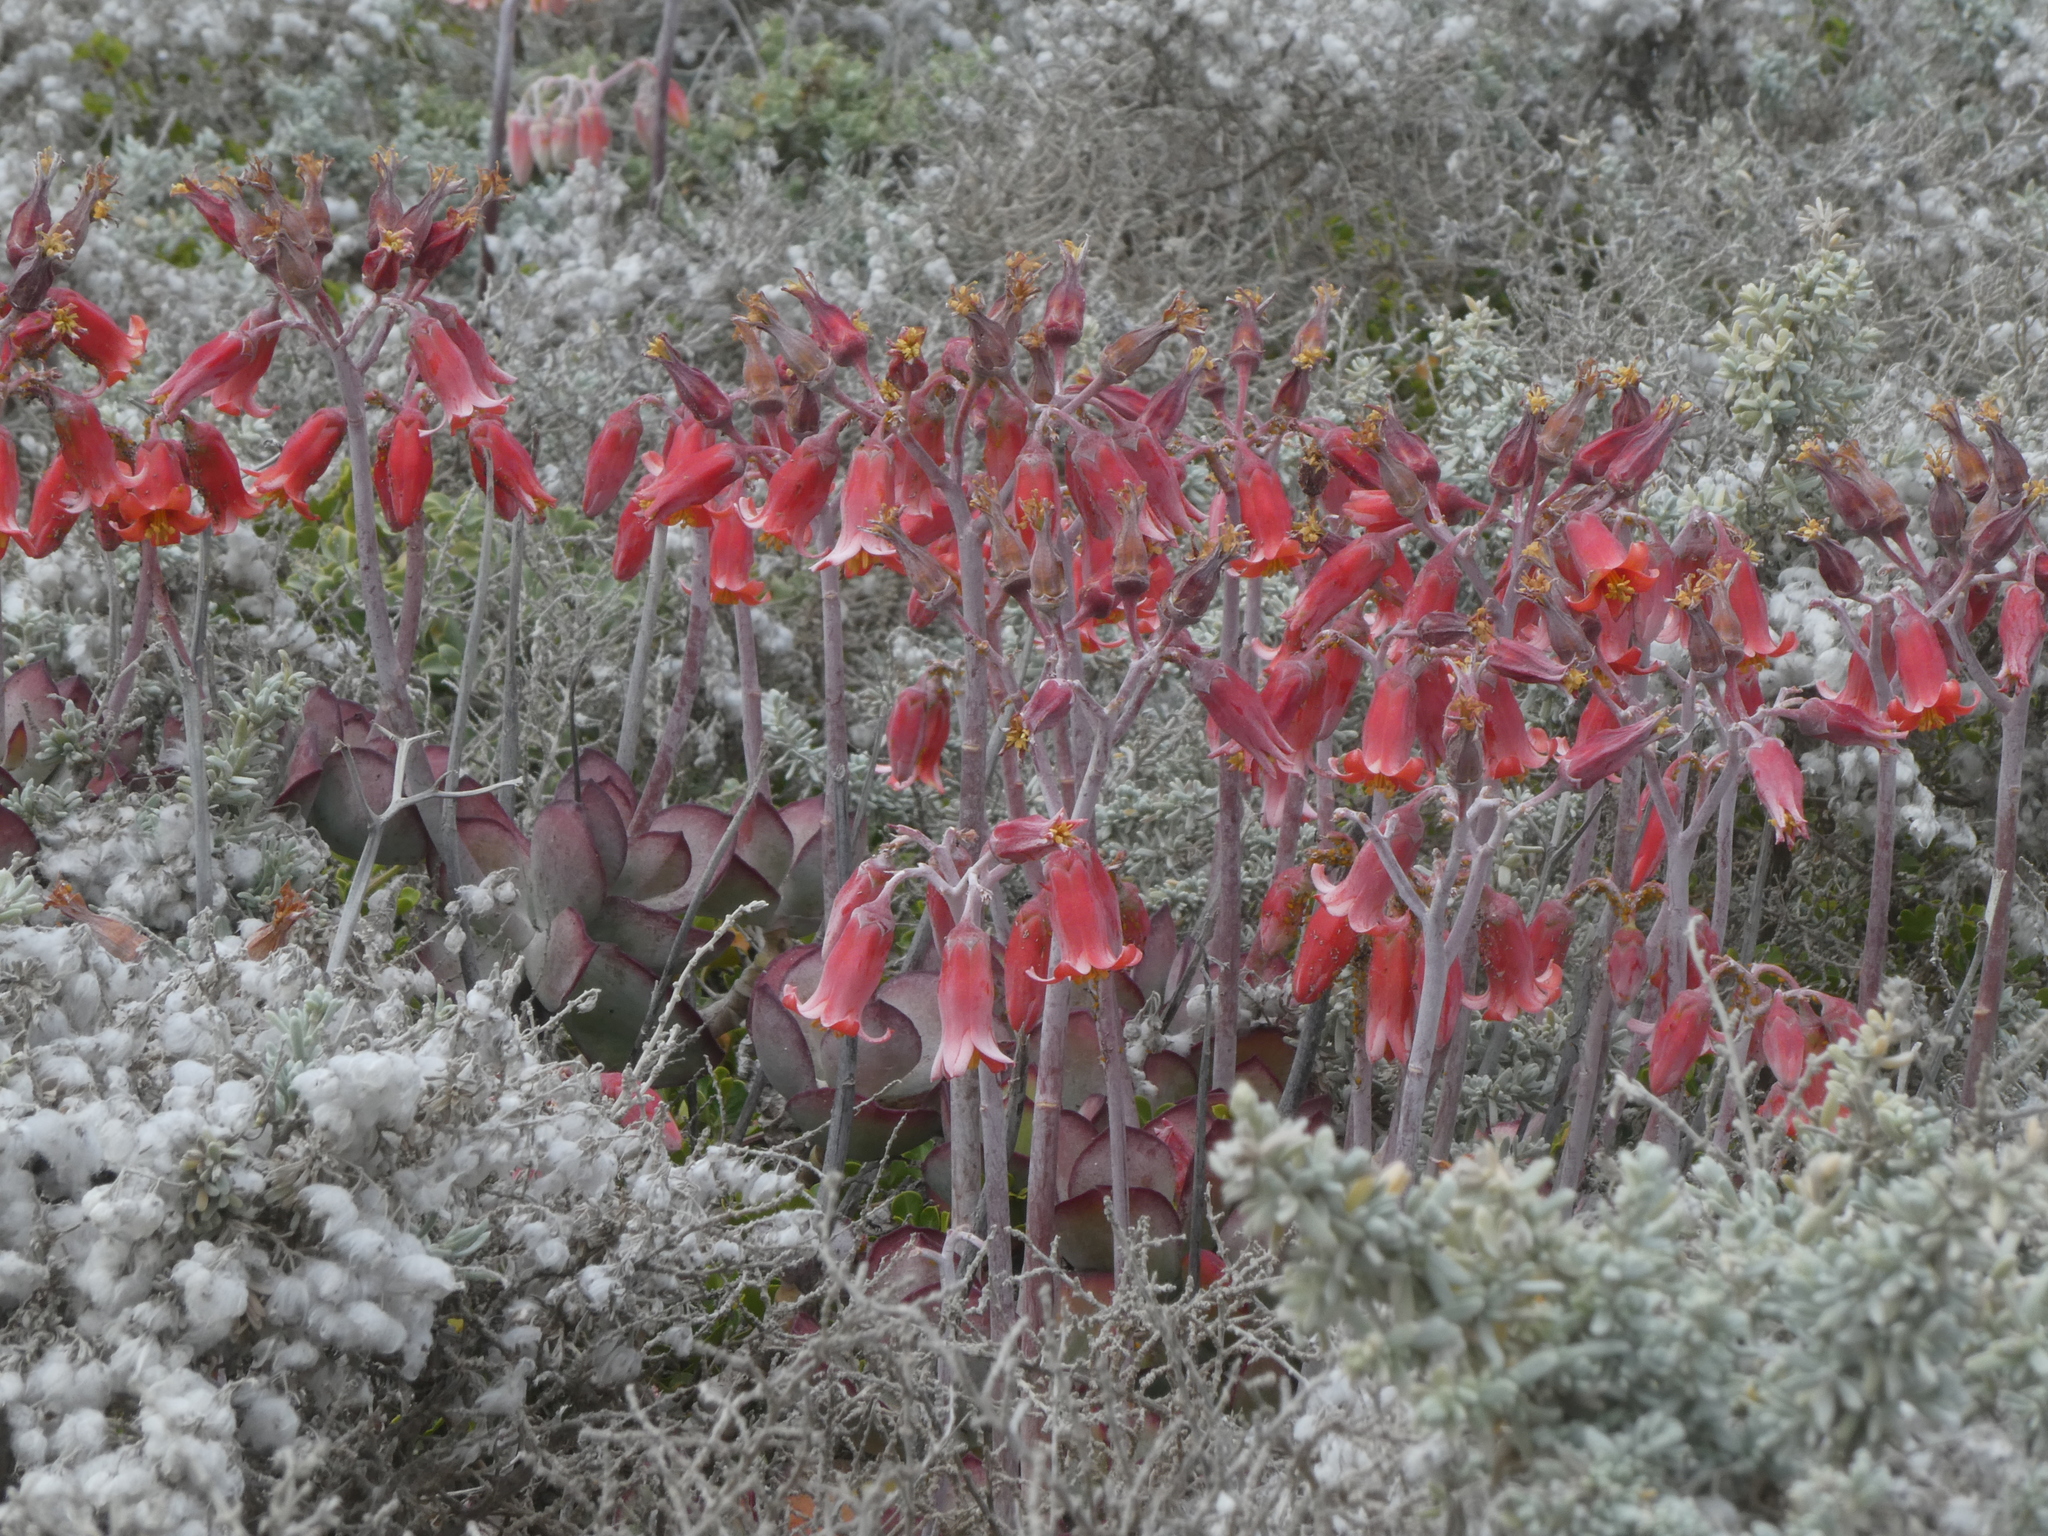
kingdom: Plantae
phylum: Tracheophyta
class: Magnoliopsida
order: Saxifragales
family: Crassulaceae
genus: Cotyledon
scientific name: Cotyledon orbiculata
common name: Pig's ear
